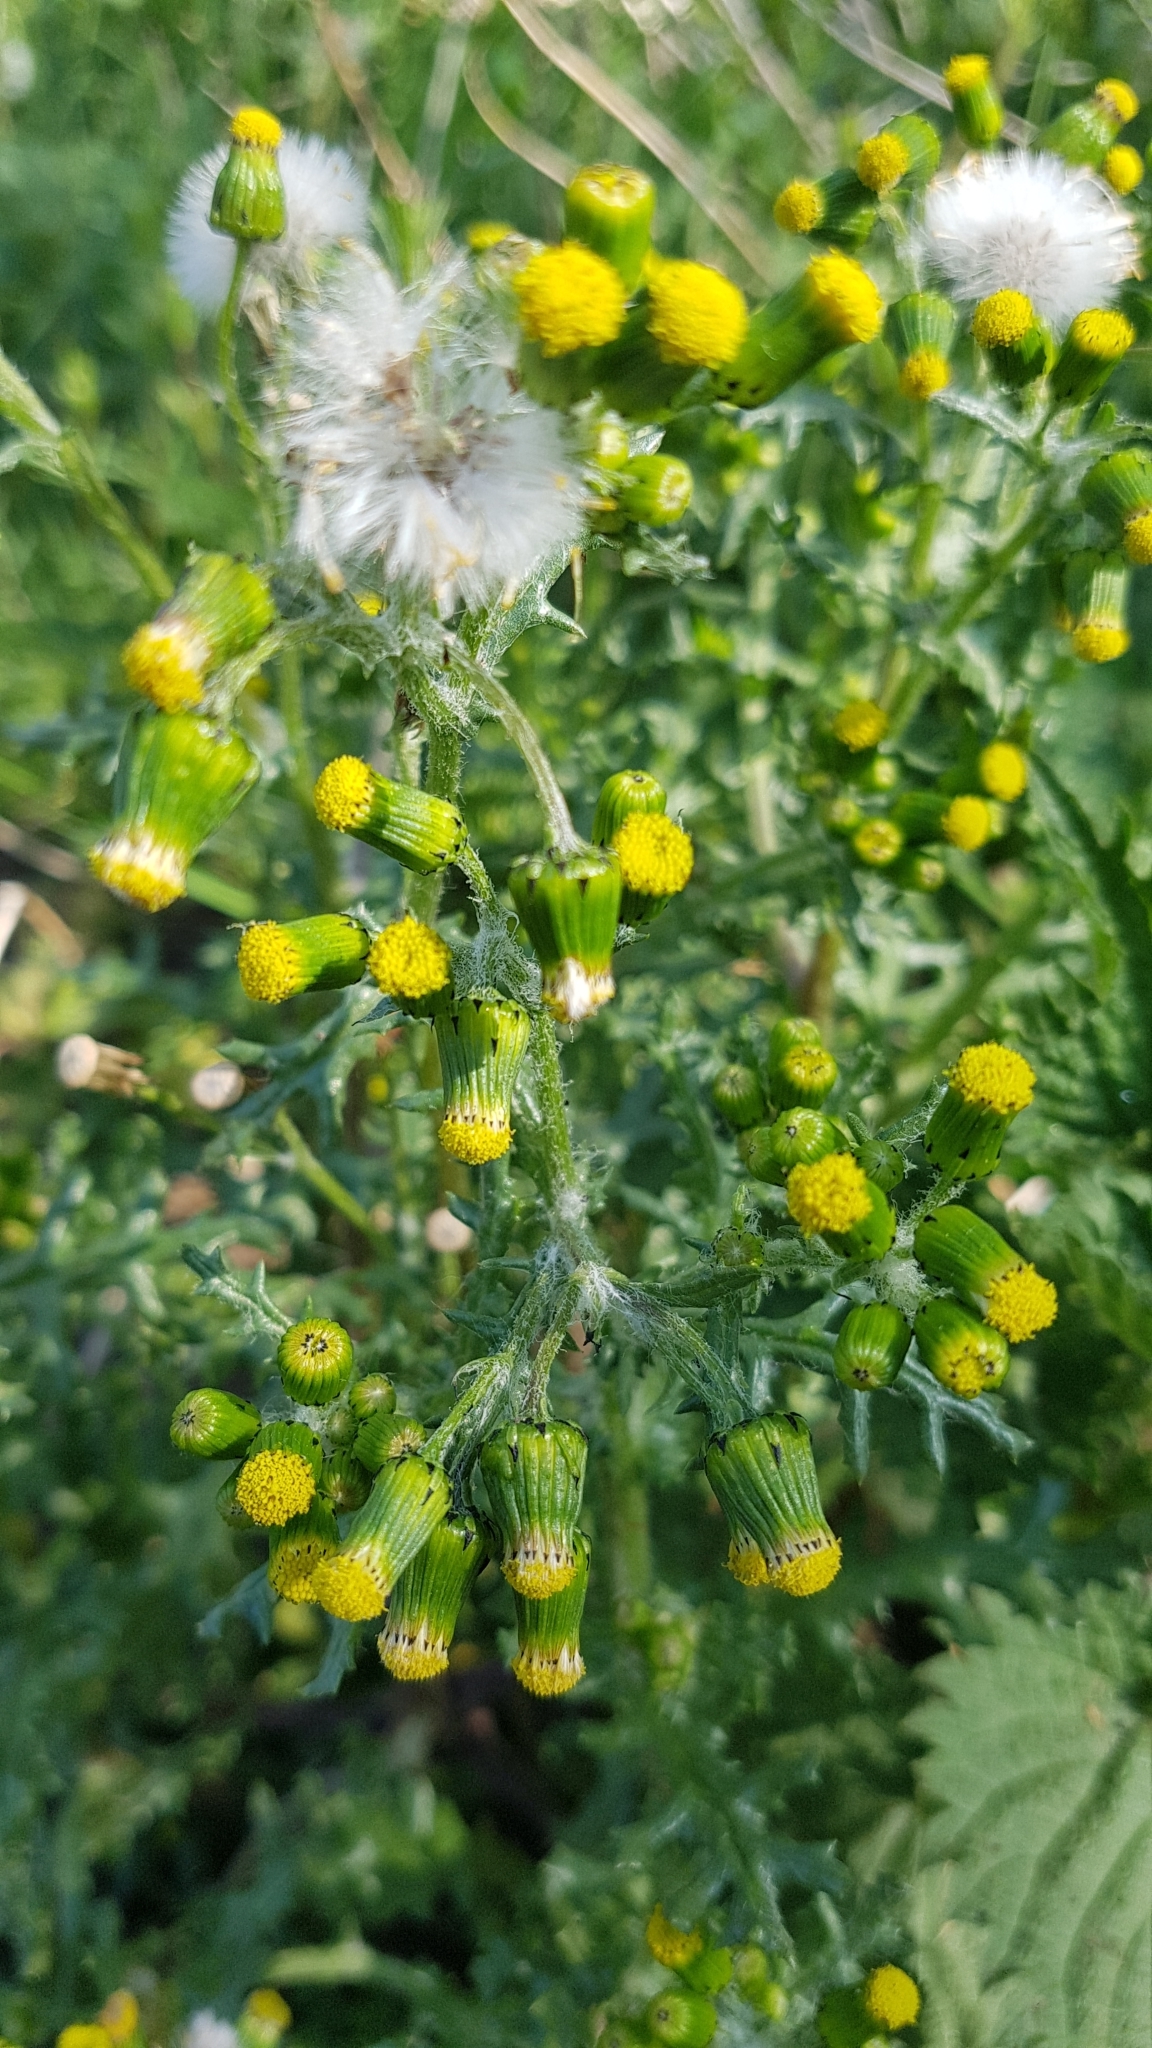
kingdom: Plantae
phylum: Tracheophyta
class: Magnoliopsida
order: Asterales
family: Asteraceae
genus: Senecio
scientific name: Senecio vulgaris
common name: Old-man-in-the-spring
